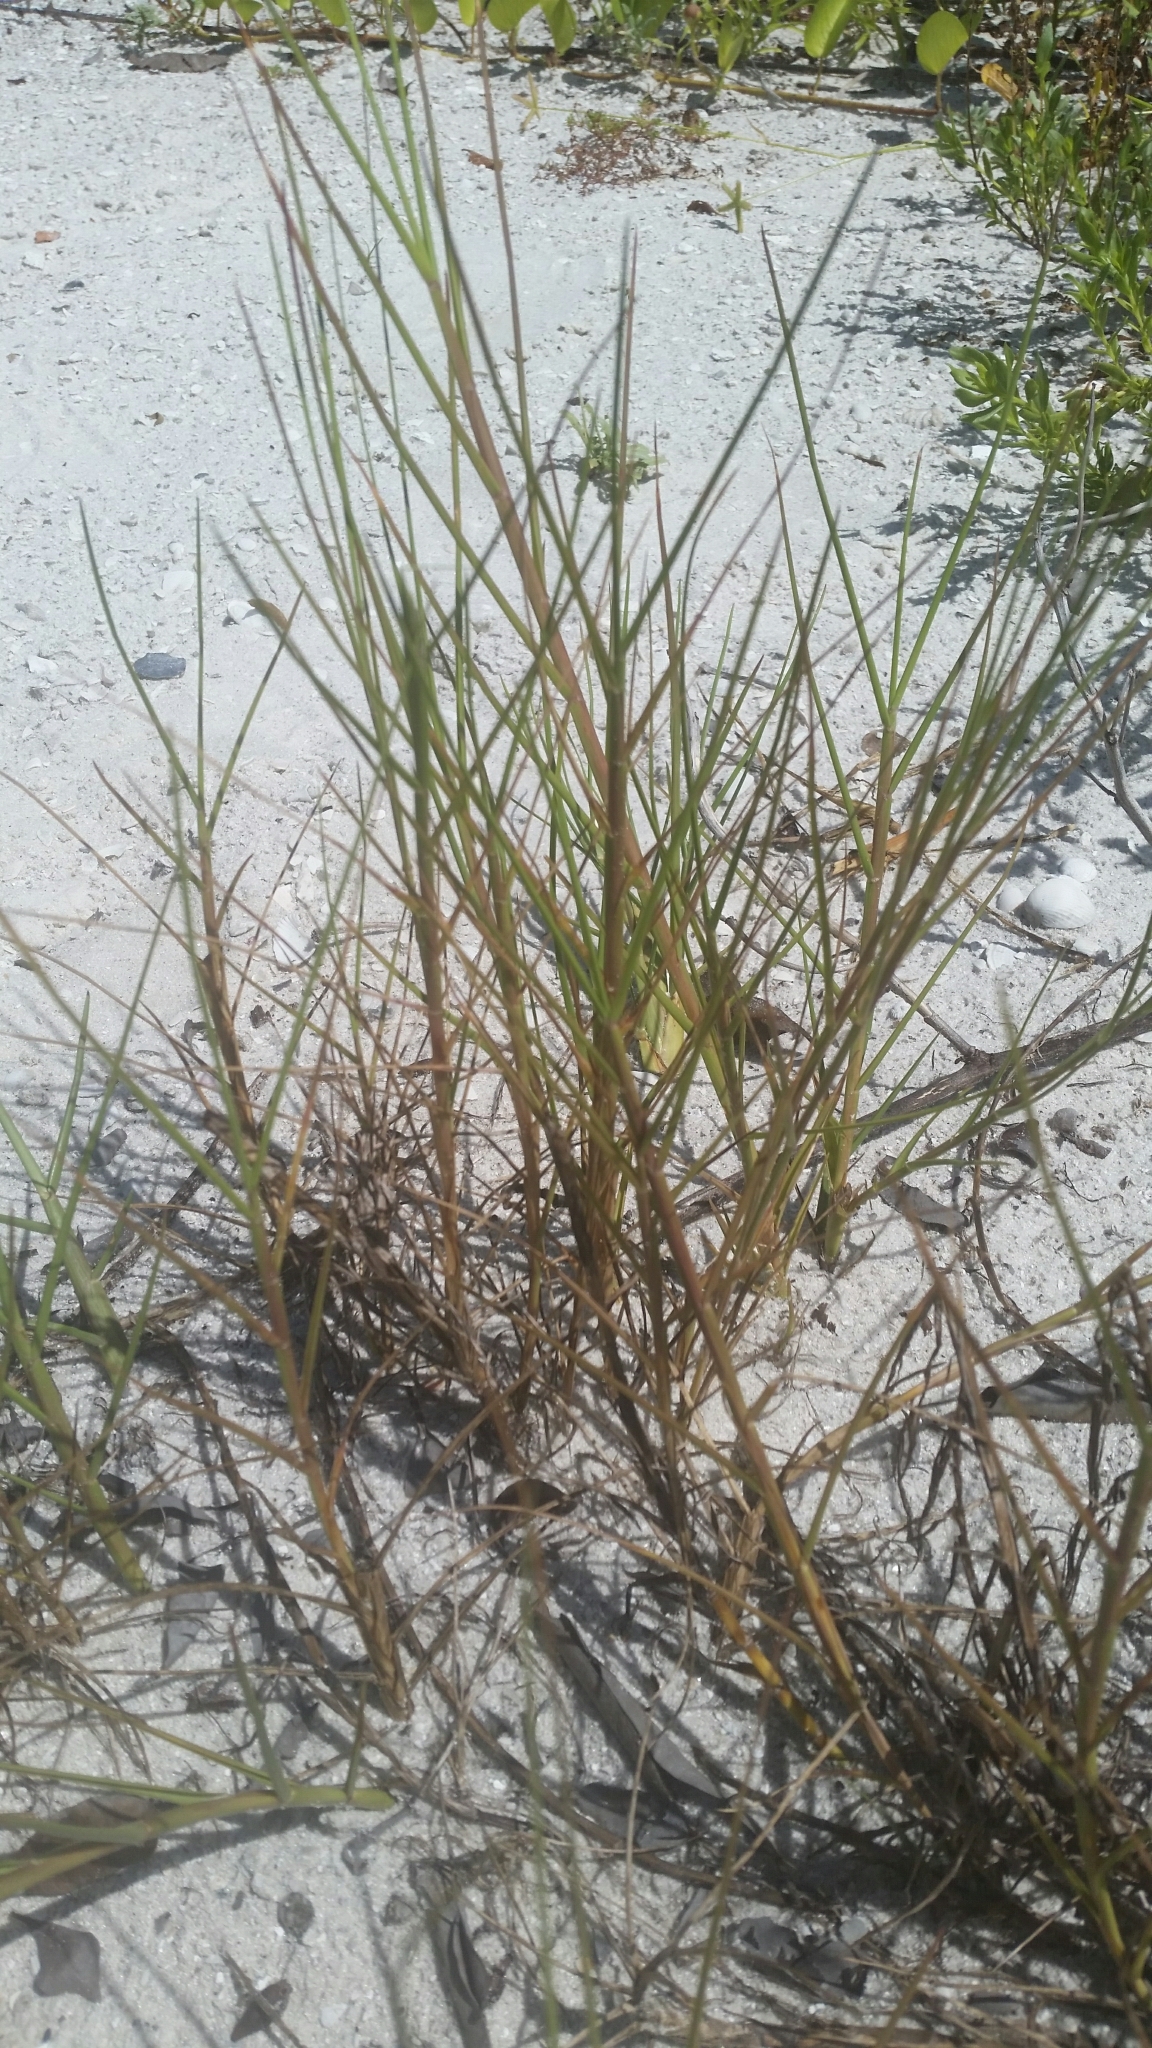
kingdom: Plantae
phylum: Tracheophyta
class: Liliopsida
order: Poales
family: Poaceae
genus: Paspalum
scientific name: Paspalum vaginatum
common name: Seashore paspalum
